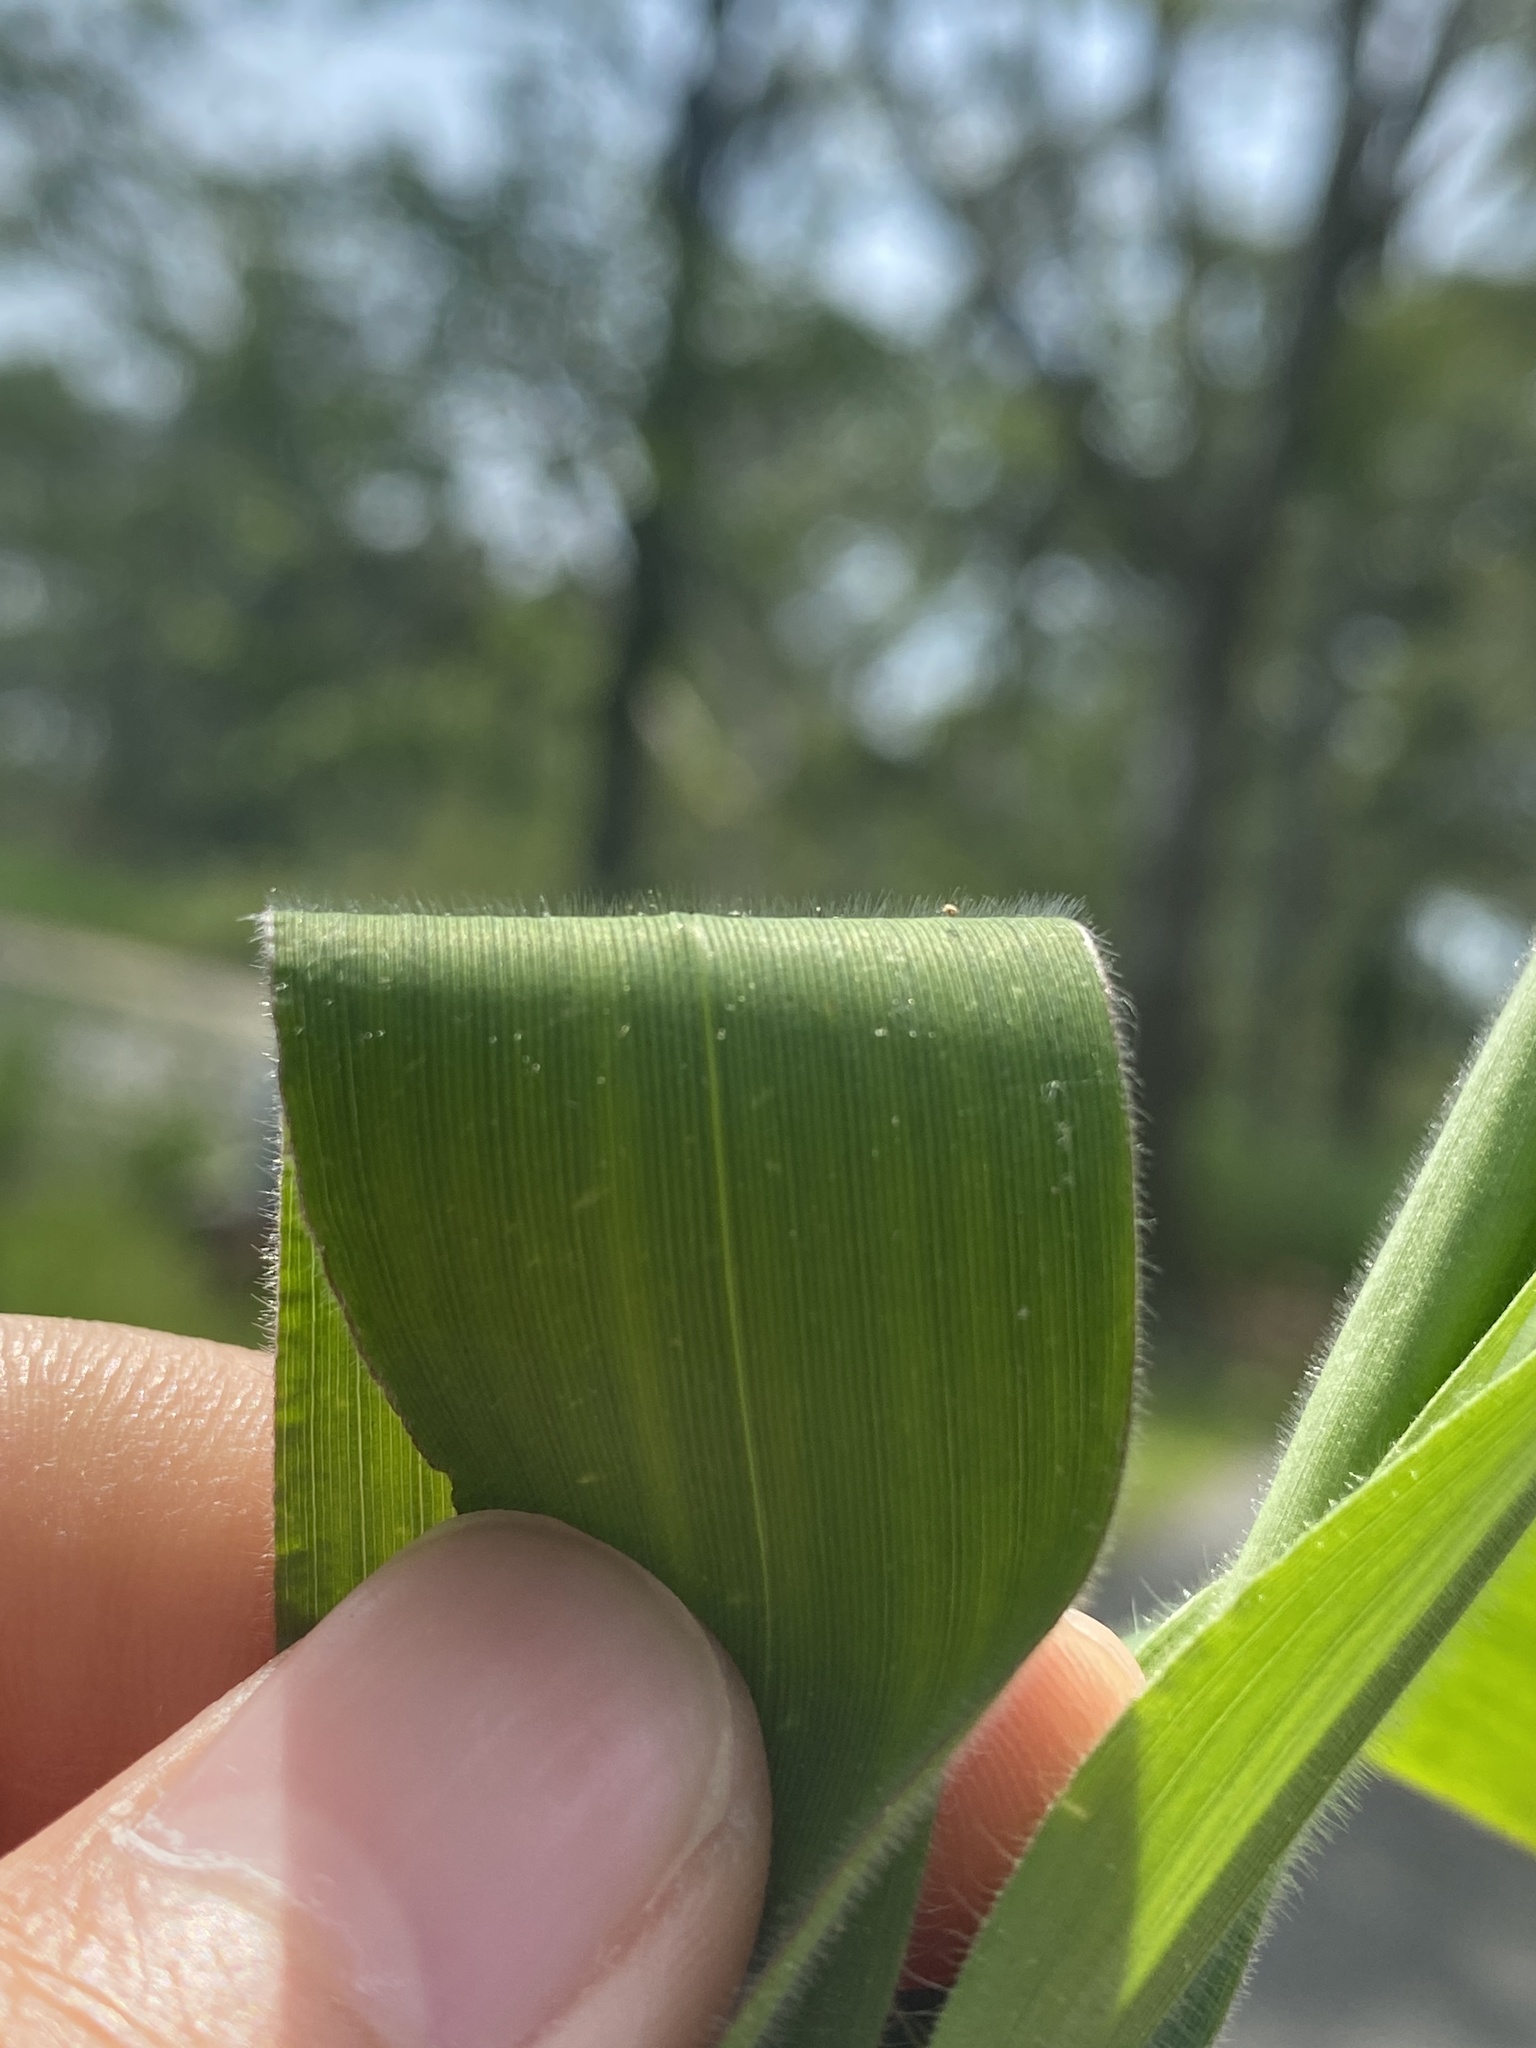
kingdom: Plantae
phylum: Tracheophyta
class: Liliopsida
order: Poales
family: Poaceae
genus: Dichanthelium
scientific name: Dichanthelium scoparium
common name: Velvety panic grass
